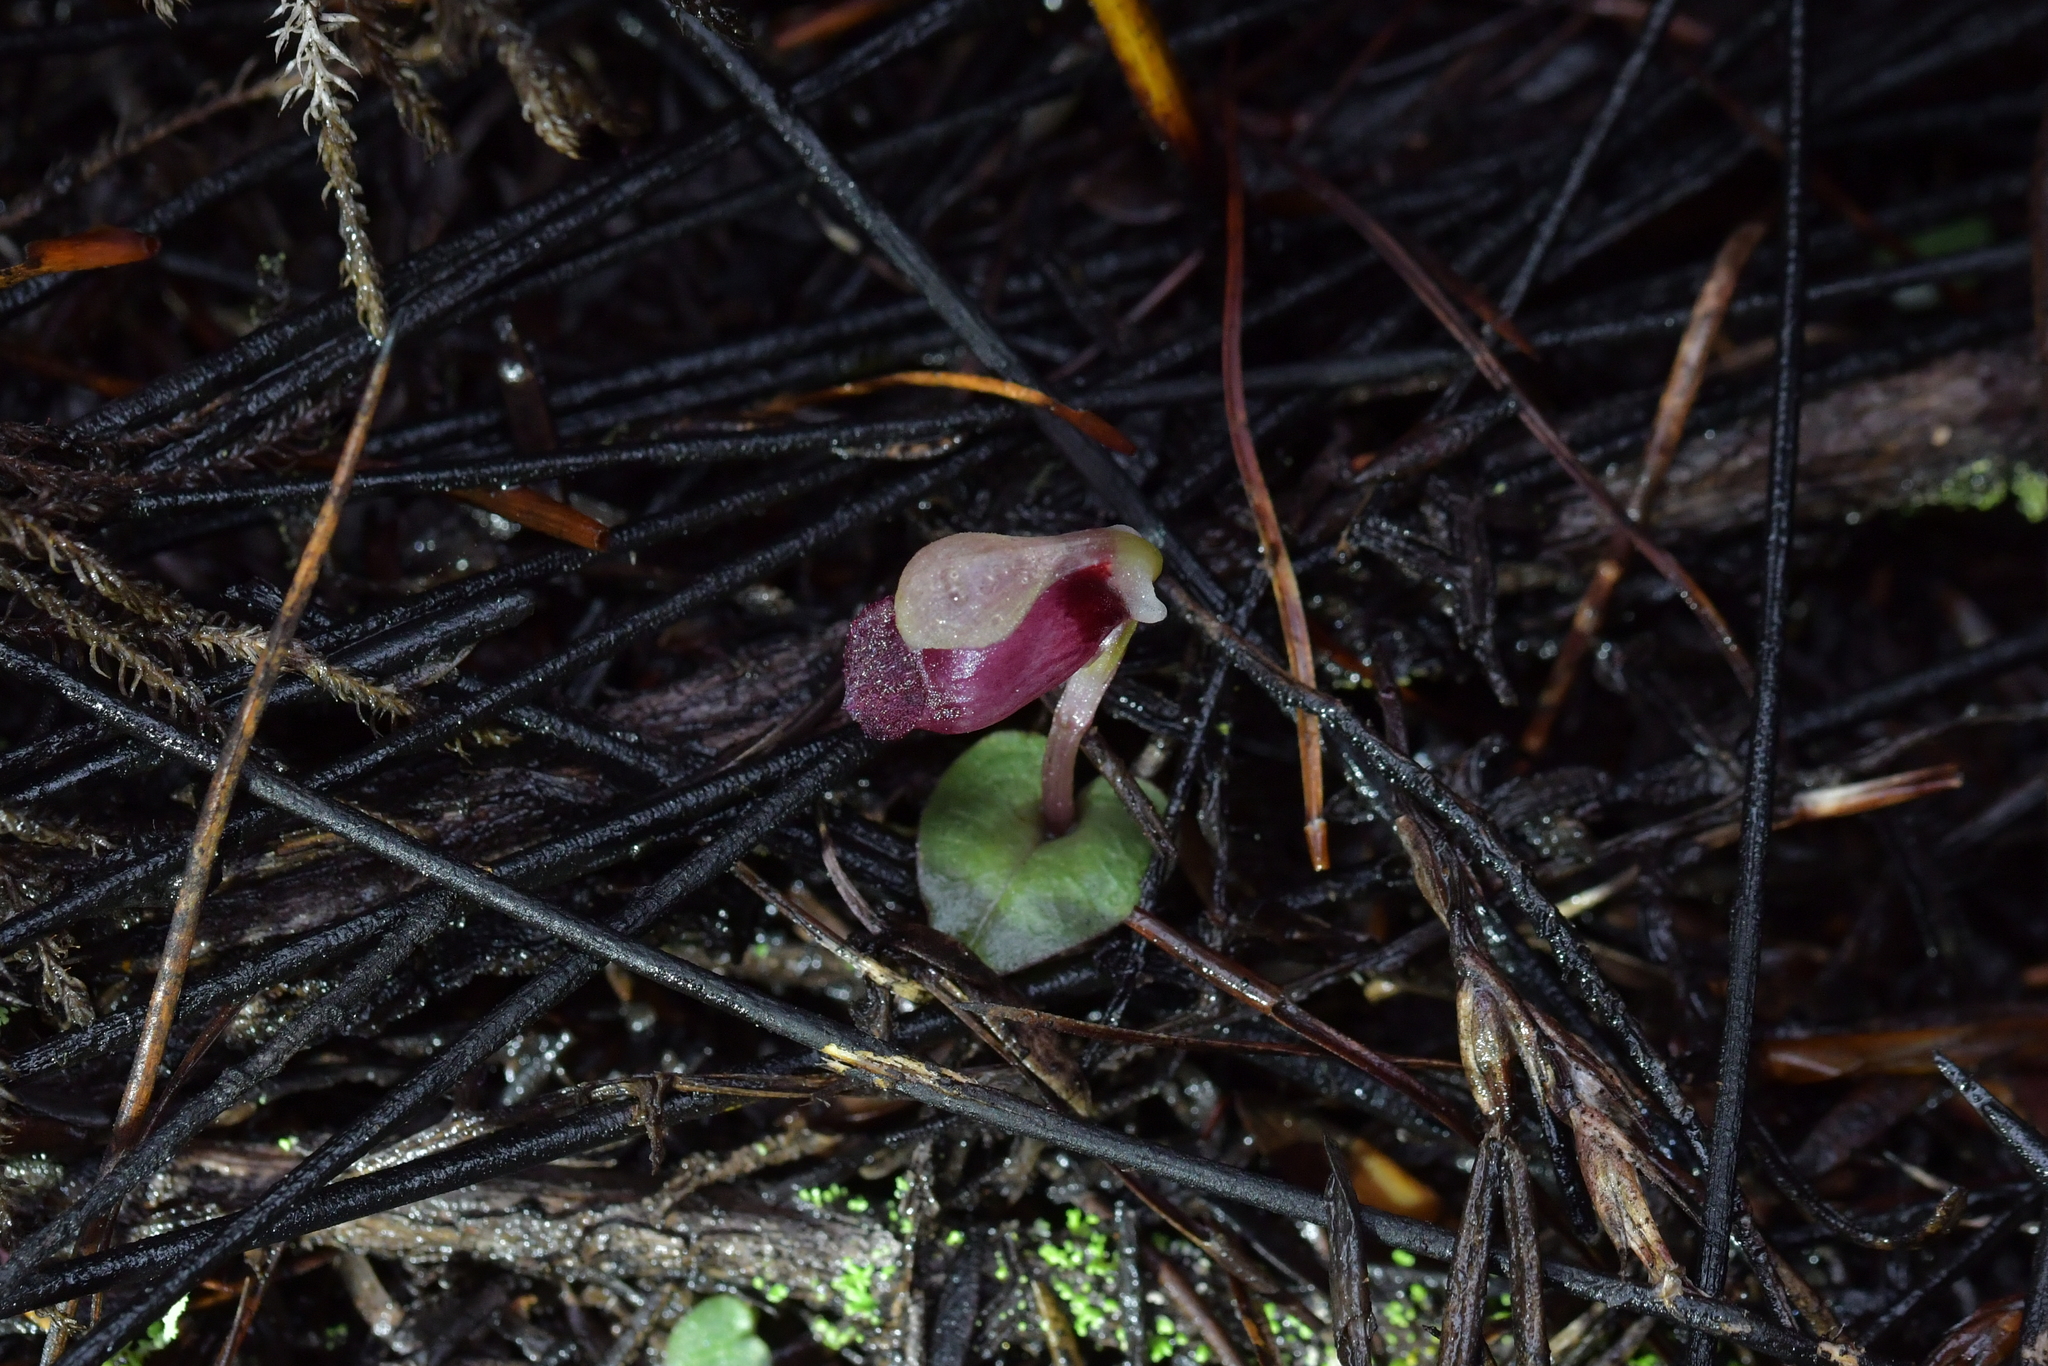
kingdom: Plantae
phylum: Tracheophyta
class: Liliopsida
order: Asparagales
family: Orchidaceae
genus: Corybas
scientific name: Corybas rotundifolius
